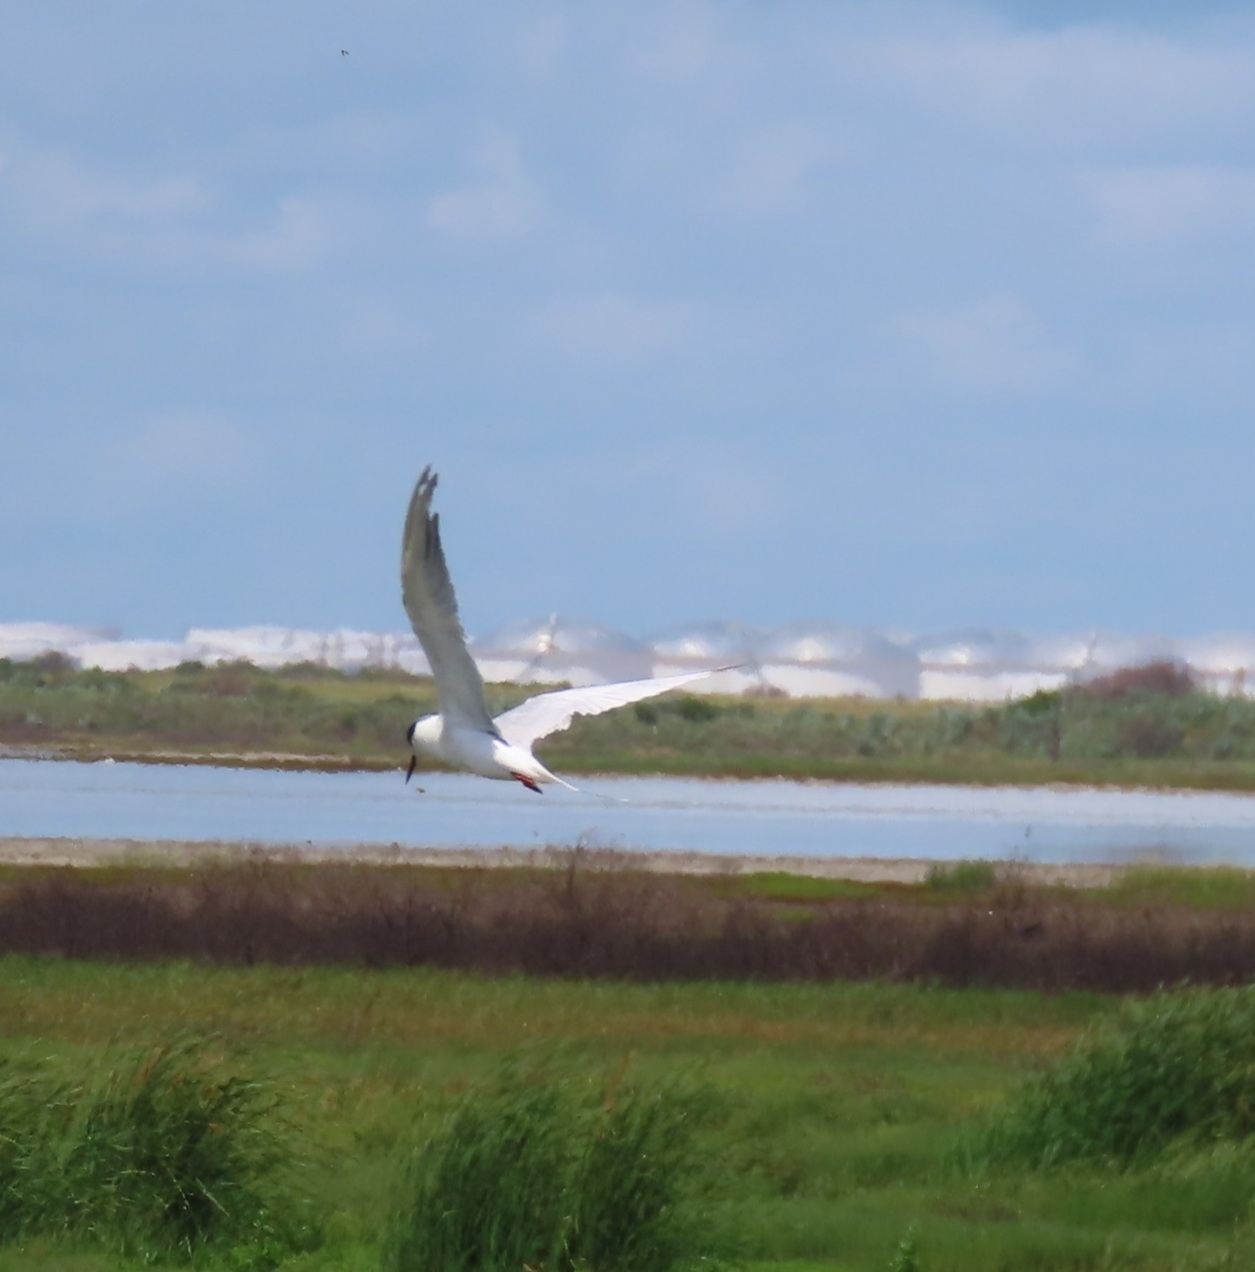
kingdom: Animalia
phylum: Chordata
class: Aves
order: Charadriiformes
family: Laridae
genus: Sterna
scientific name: Sterna forsteri
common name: Forster's tern
